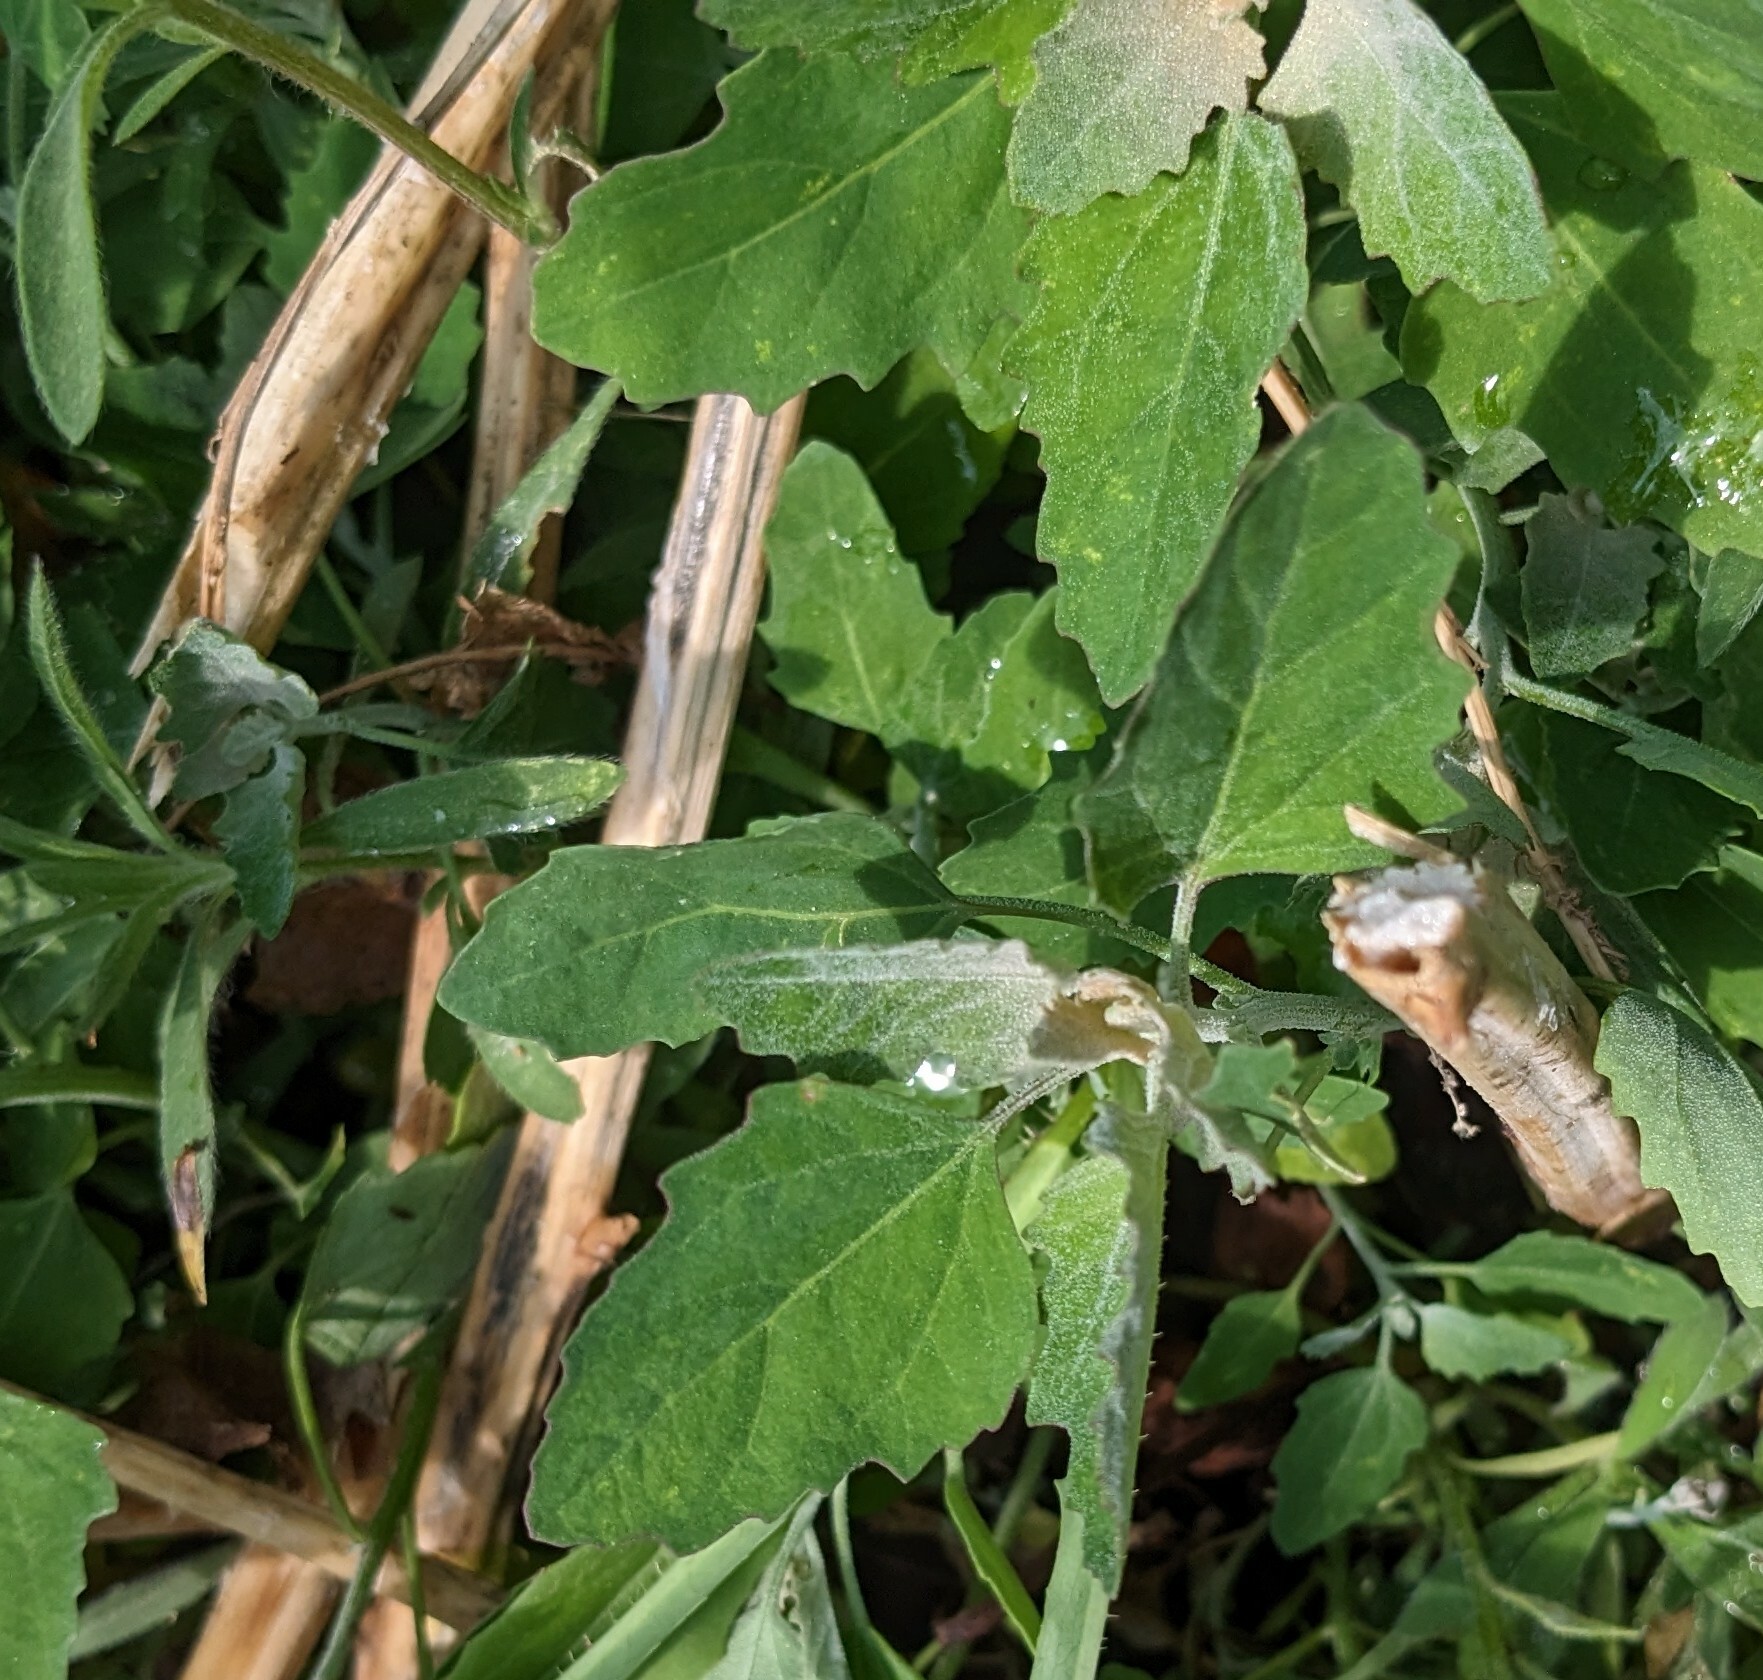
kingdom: Plantae
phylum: Tracheophyta
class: Magnoliopsida
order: Caryophyllales
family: Amaranthaceae
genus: Chenopodium
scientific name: Chenopodium album
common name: Fat-hen
